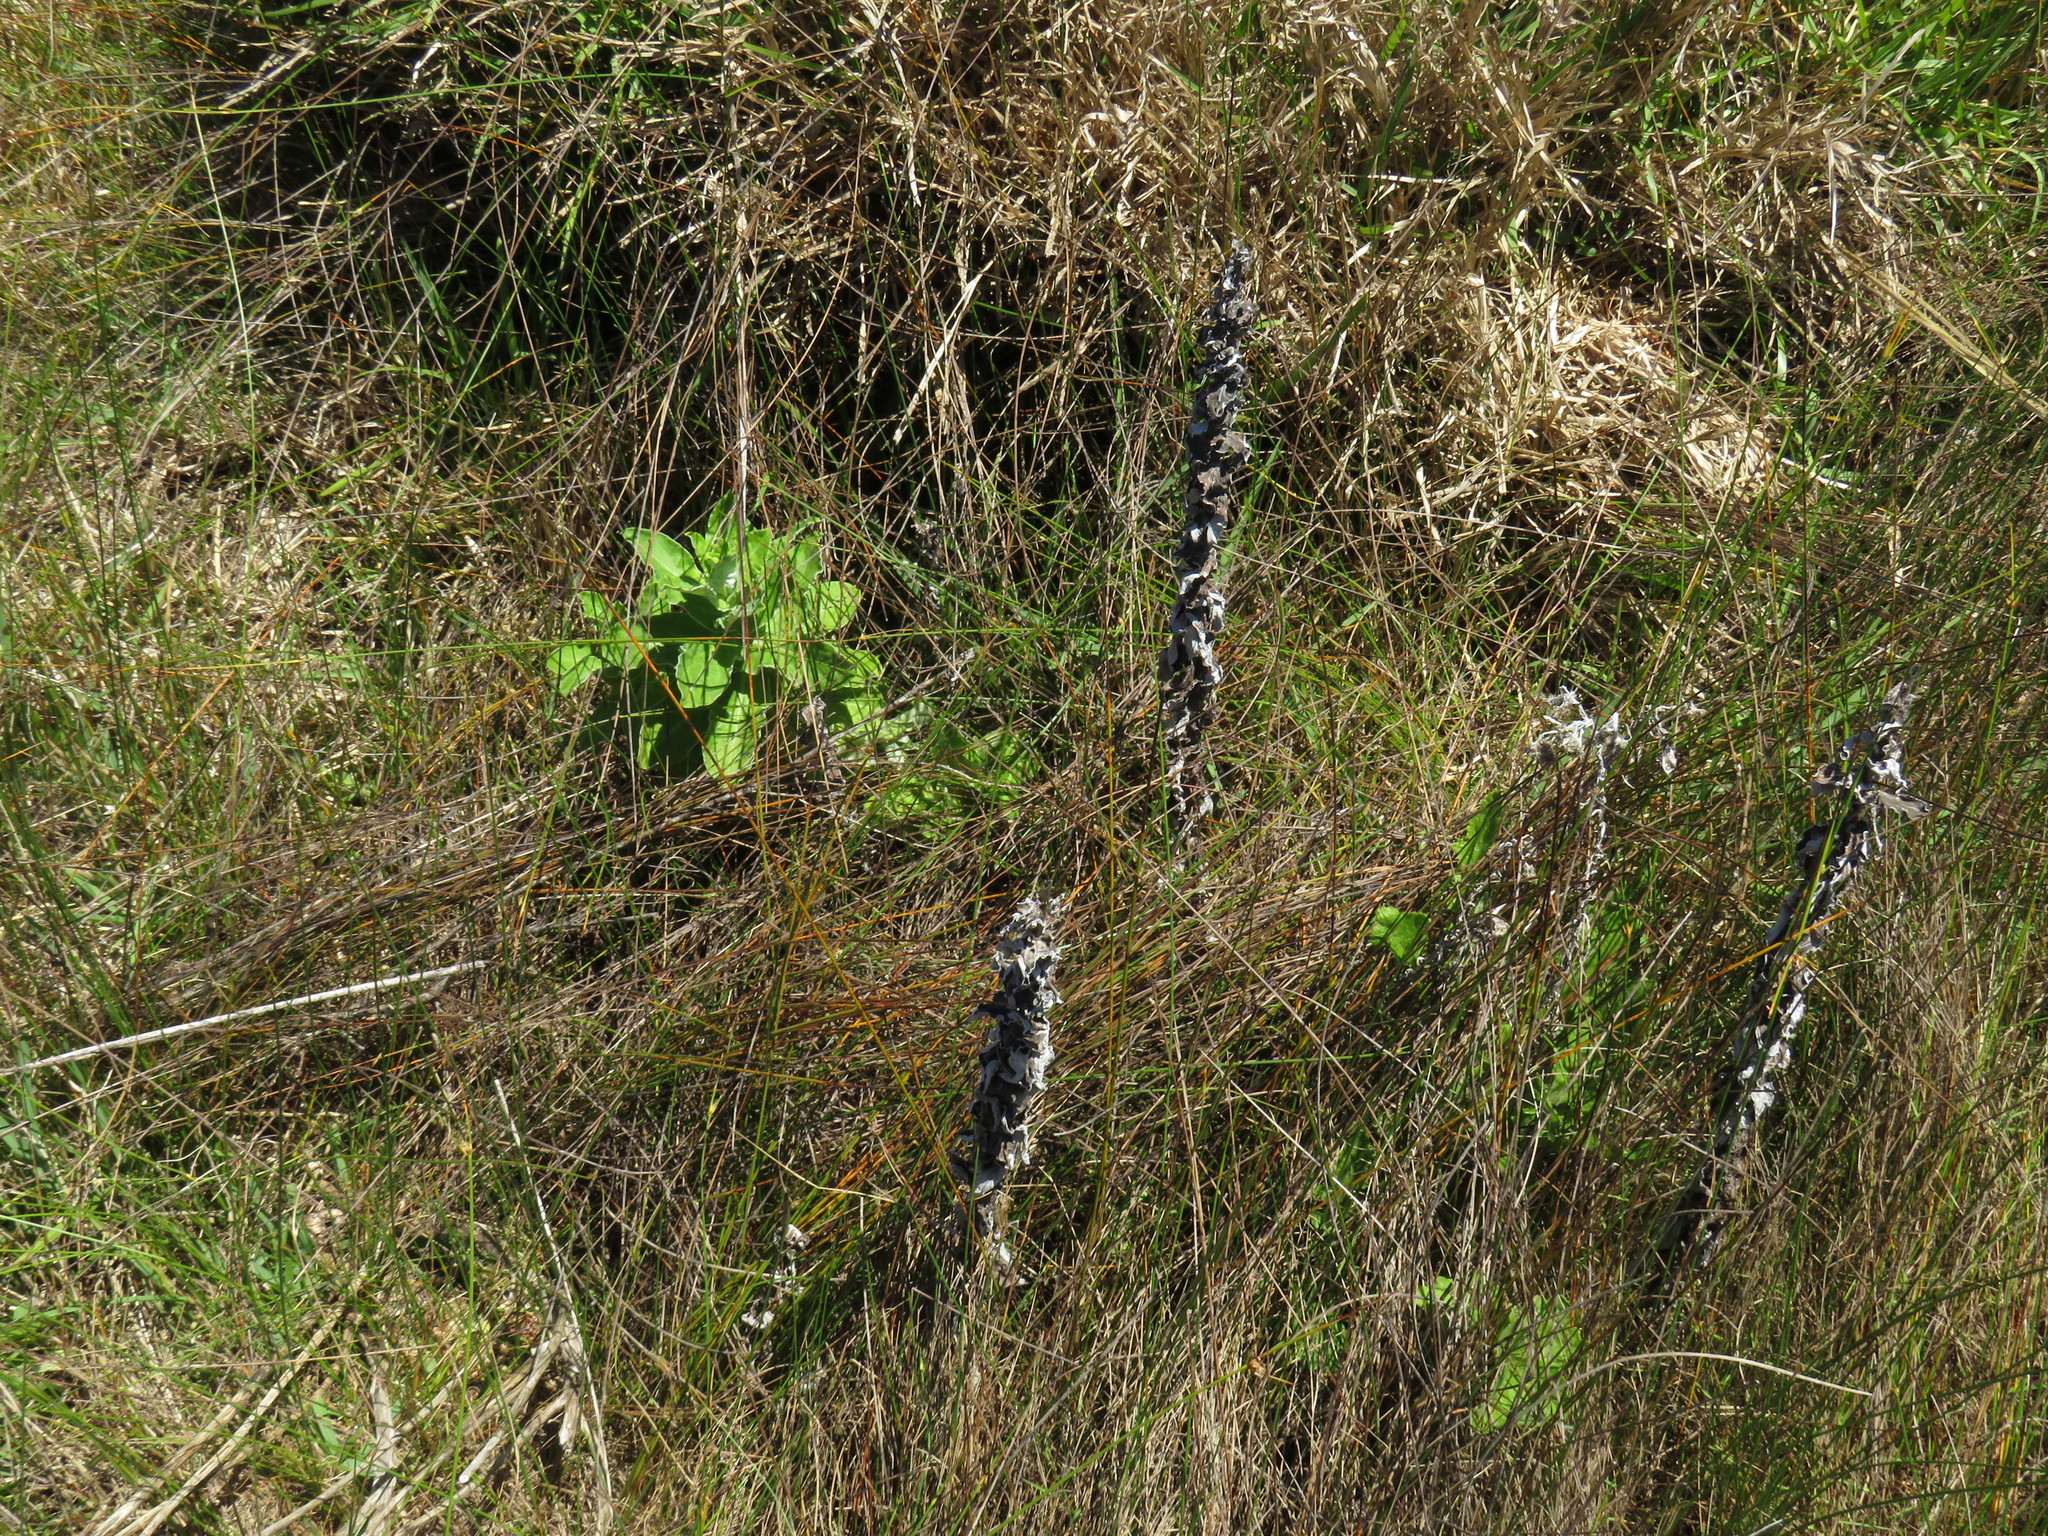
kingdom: Plantae
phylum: Tracheophyta
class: Magnoliopsida
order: Asterales
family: Asteraceae
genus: Helichrysum
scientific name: Helichrysum foetidum
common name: Stinking everlasting
